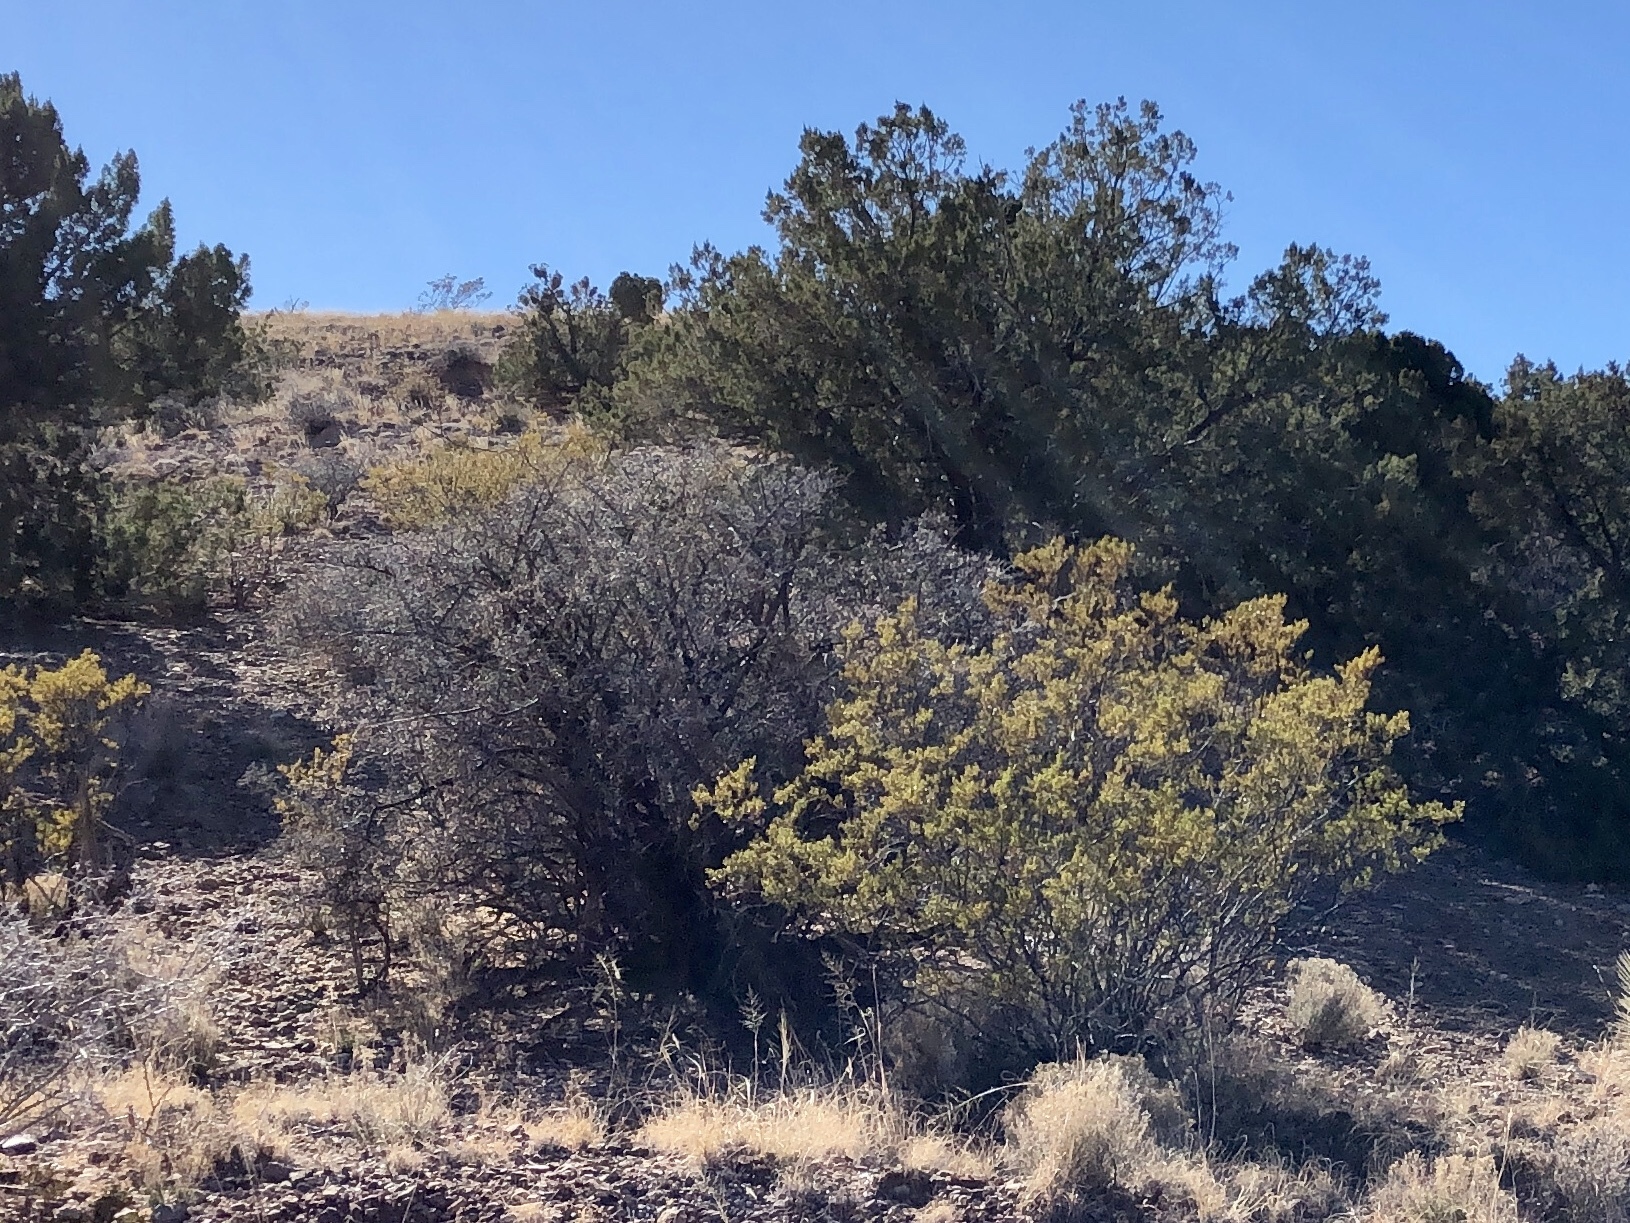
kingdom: Plantae
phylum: Tracheophyta
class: Magnoliopsida
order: Zygophyllales
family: Zygophyllaceae
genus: Larrea
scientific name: Larrea tridentata
